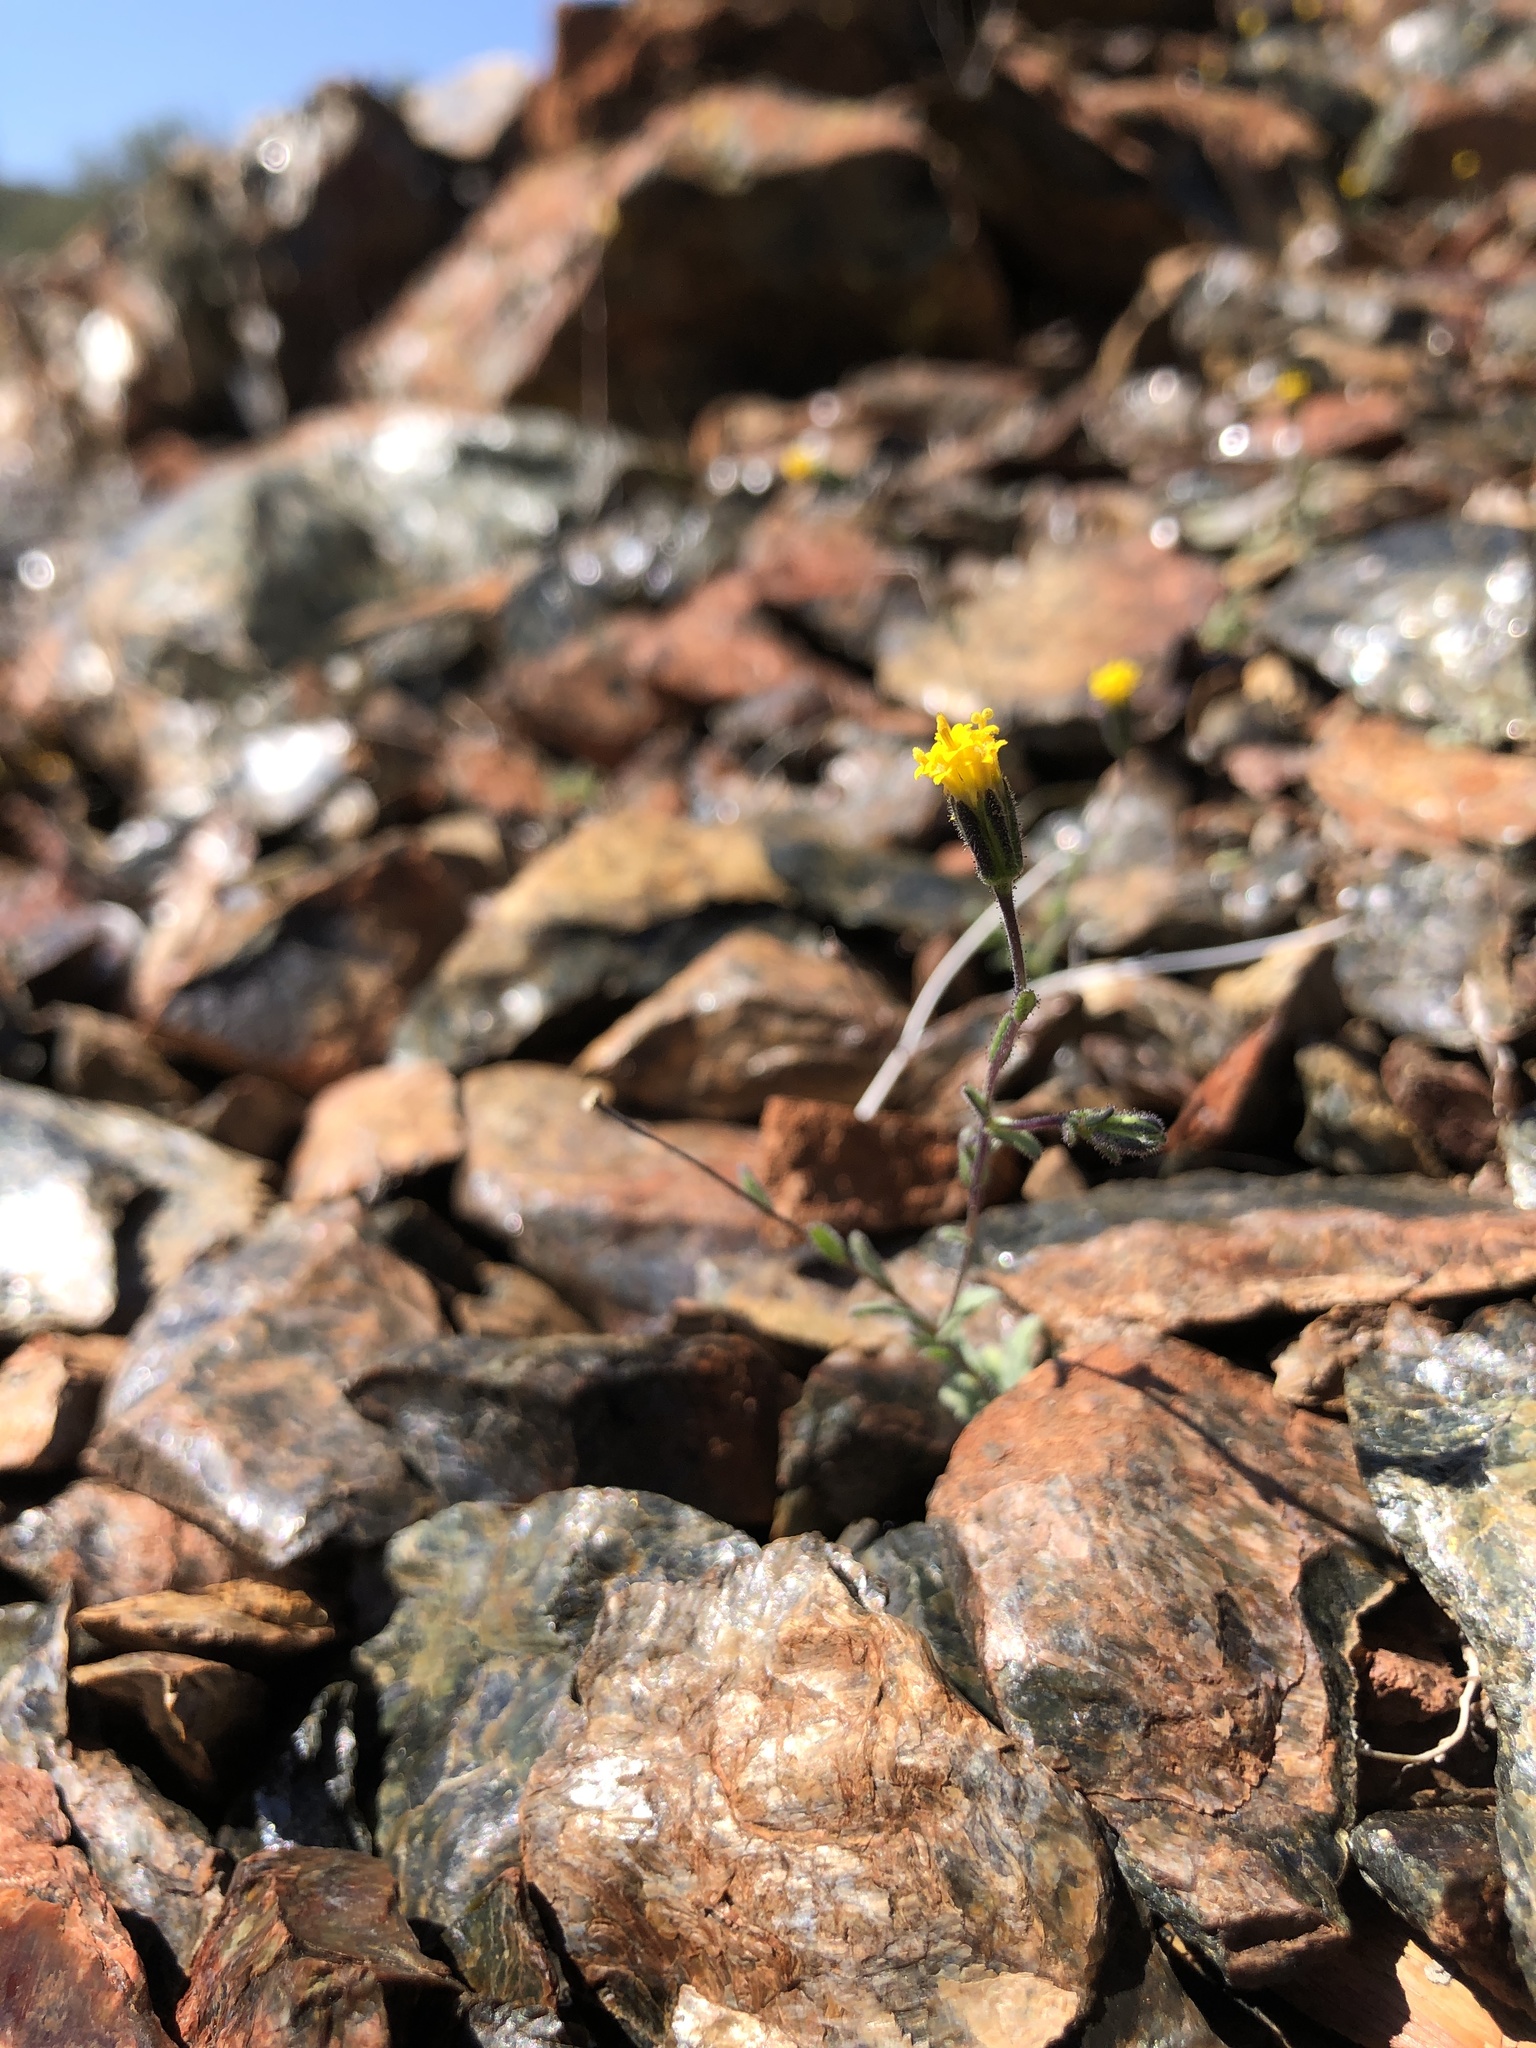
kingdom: Plantae
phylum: Tracheophyta
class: Magnoliopsida
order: Asterales
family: Asteraceae
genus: Layia
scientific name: Layia discoidea
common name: Rayless layia
